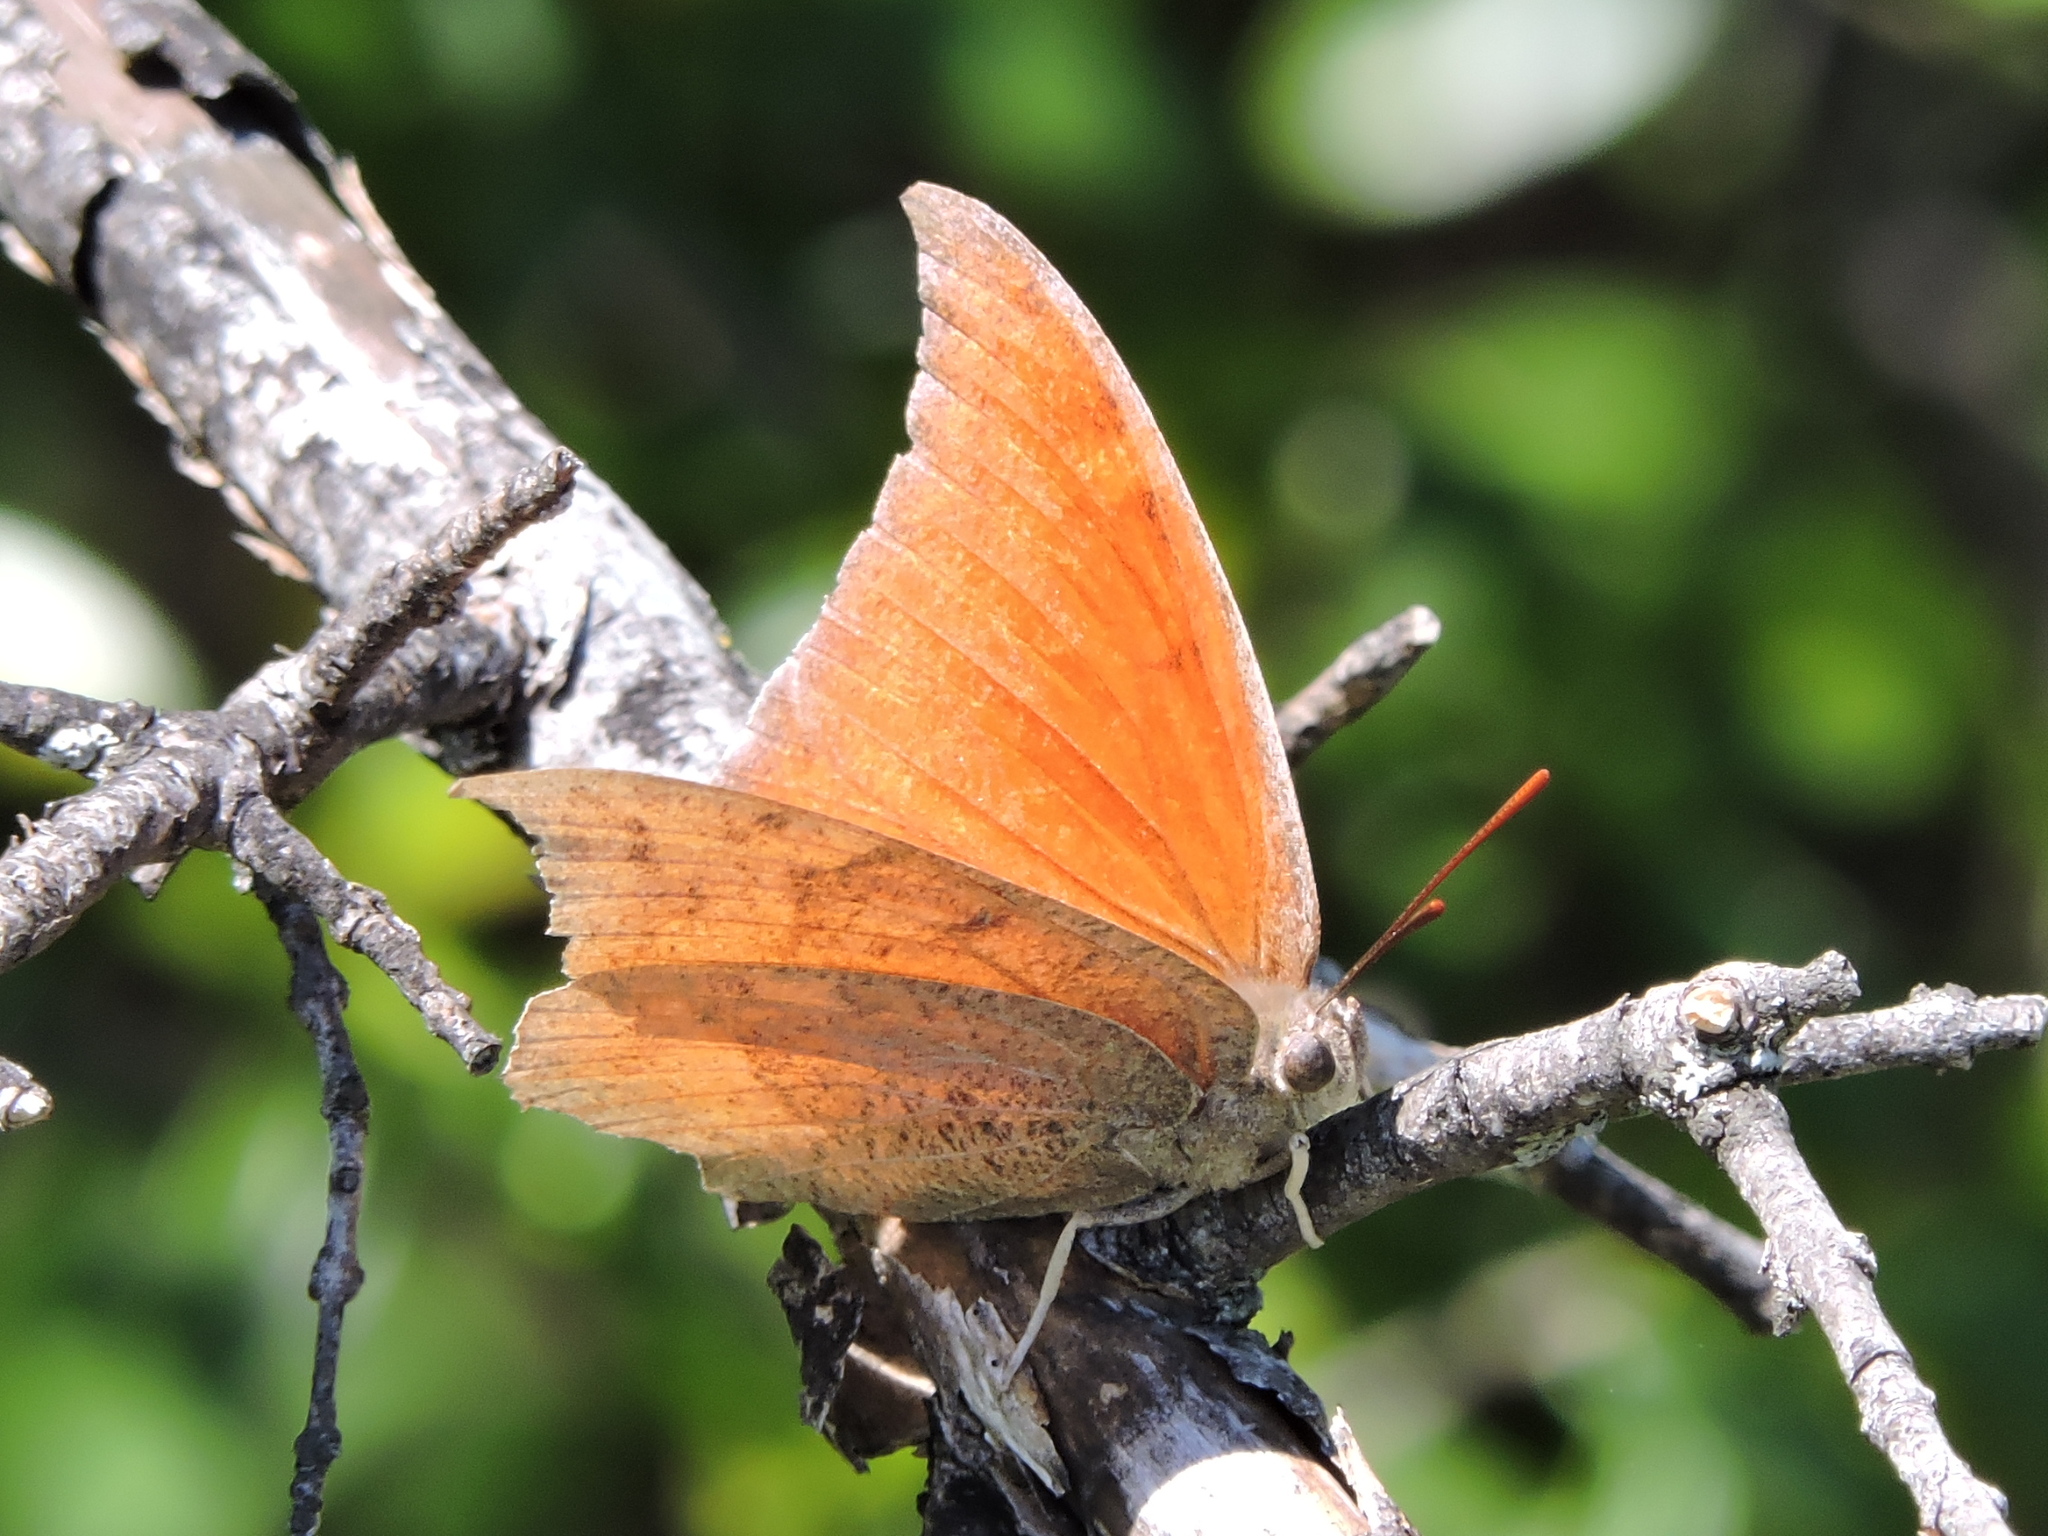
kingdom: Animalia
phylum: Arthropoda
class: Insecta
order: Lepidoptera
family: Nymphalidae
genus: Anaea
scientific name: Anaea andria
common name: Goatweed leafwing
